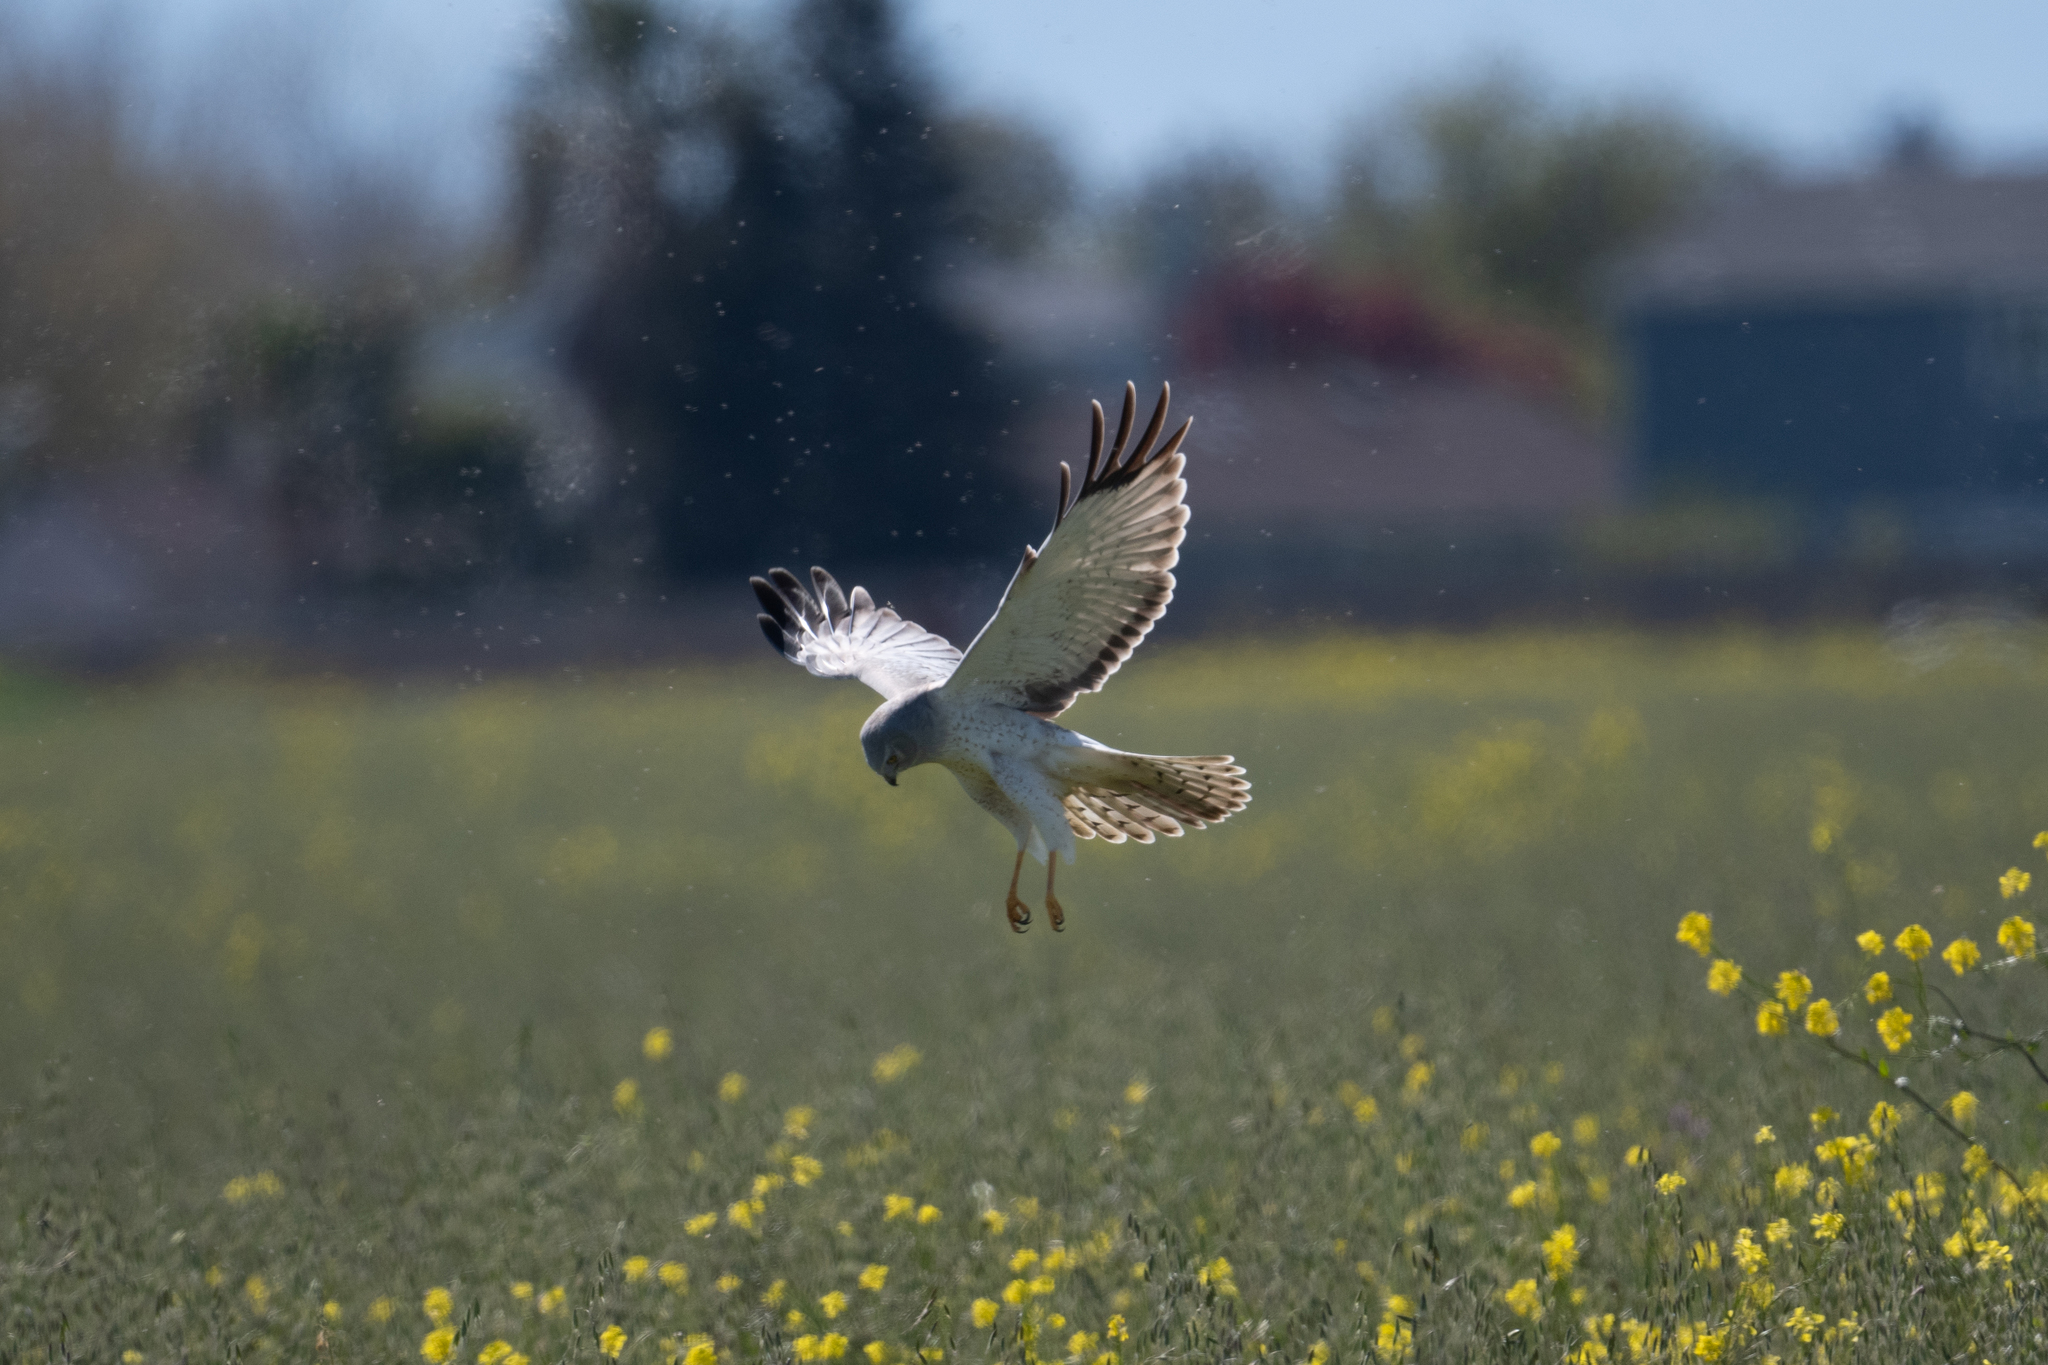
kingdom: Animalia
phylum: Chordata
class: Aves
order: Accipitriformes
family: Accipitridae
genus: Circus
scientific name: Circus cyaneus
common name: Hen harrier
